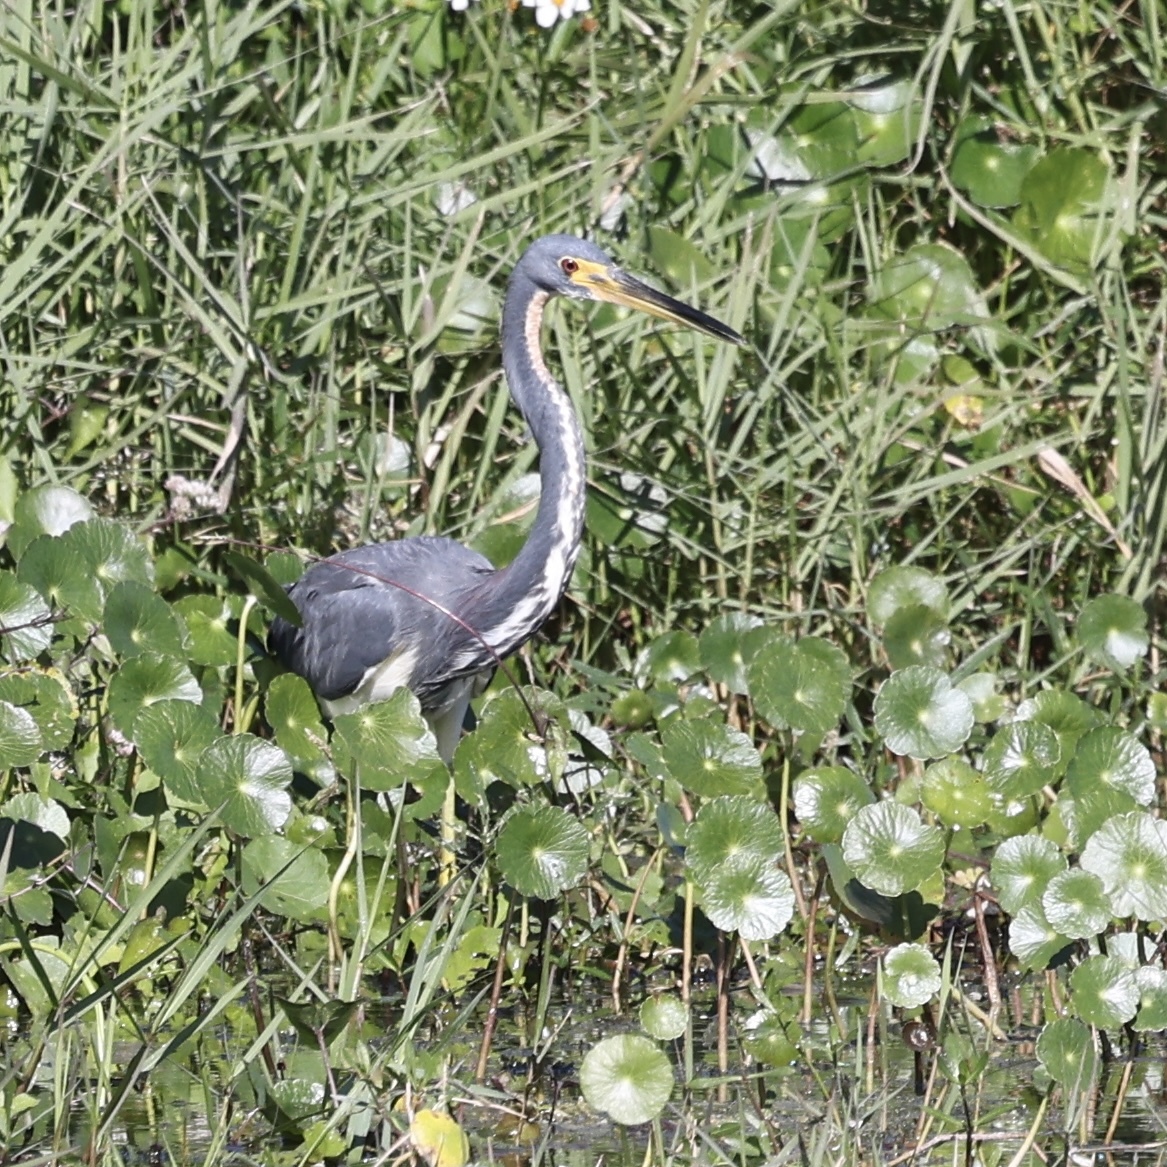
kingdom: Animalia
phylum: Chordata
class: Aves
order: Pelecaniformes
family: Ardeidae
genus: Egretta
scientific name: Egretta tricolor
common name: Tricolored heron
